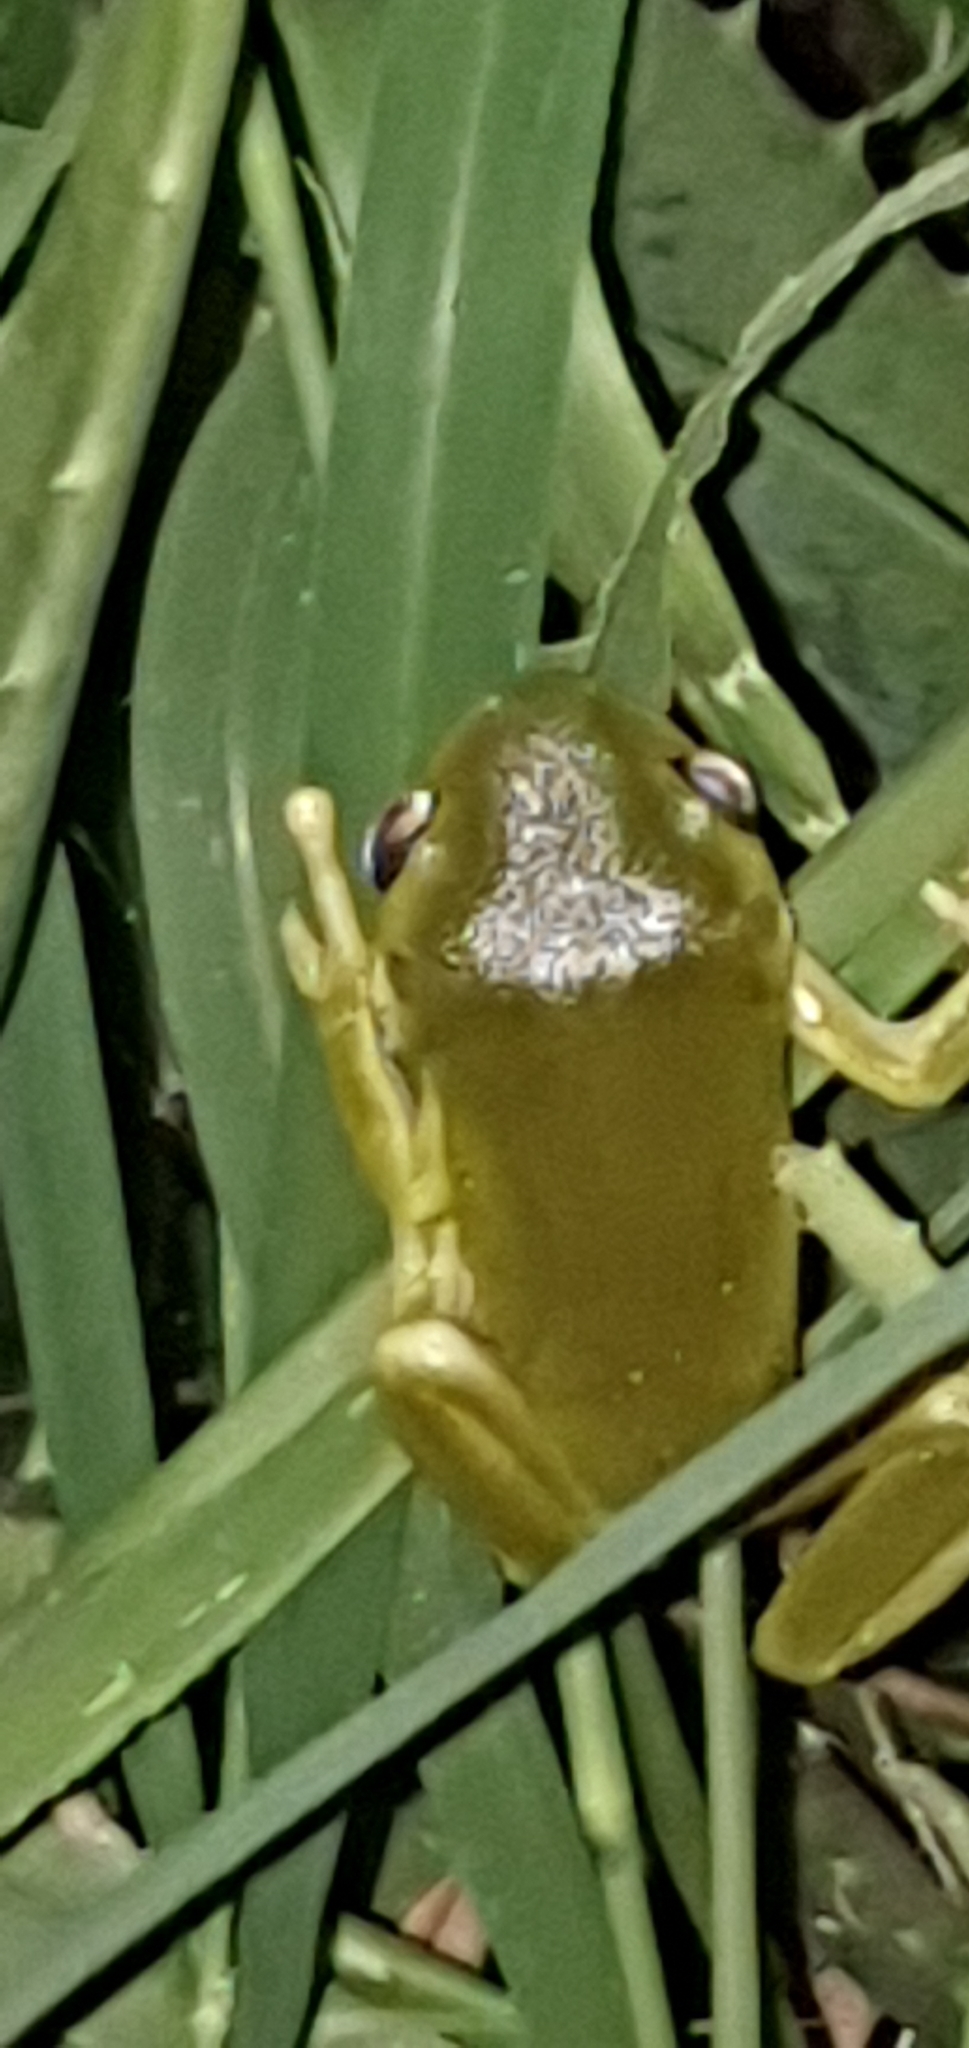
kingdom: Animalia
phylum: Chordata
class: Amphibia
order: Anura
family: Pelodryadidae
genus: Ranoidea
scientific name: Ranoidea caerulea
